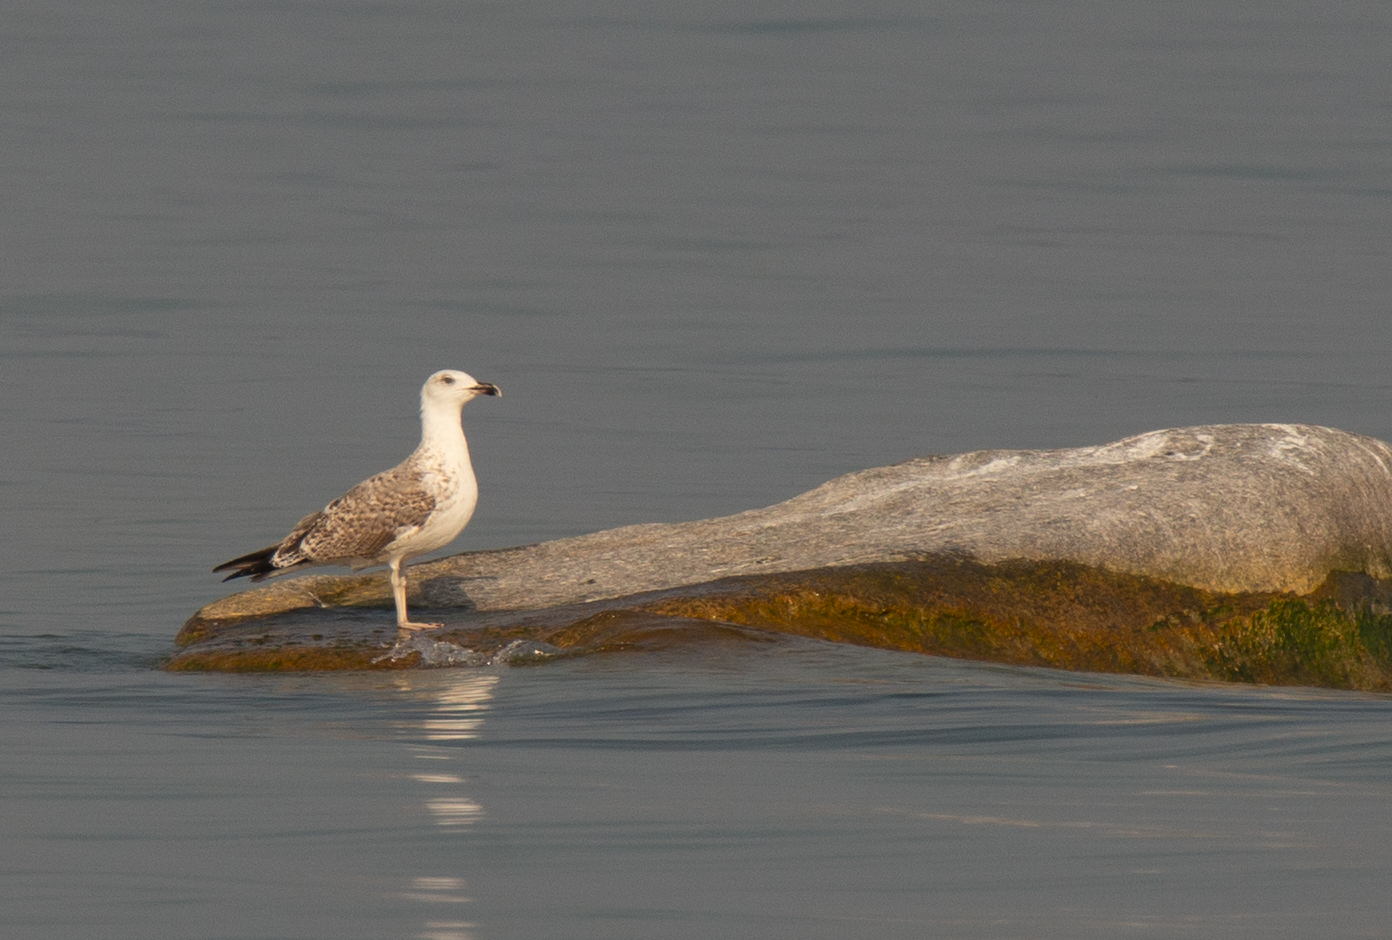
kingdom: Animalia
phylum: Chordata
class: Aves
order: Charadriiformes
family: Laridae
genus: Larus
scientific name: Larus michahellis
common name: Yellow-legged gull
